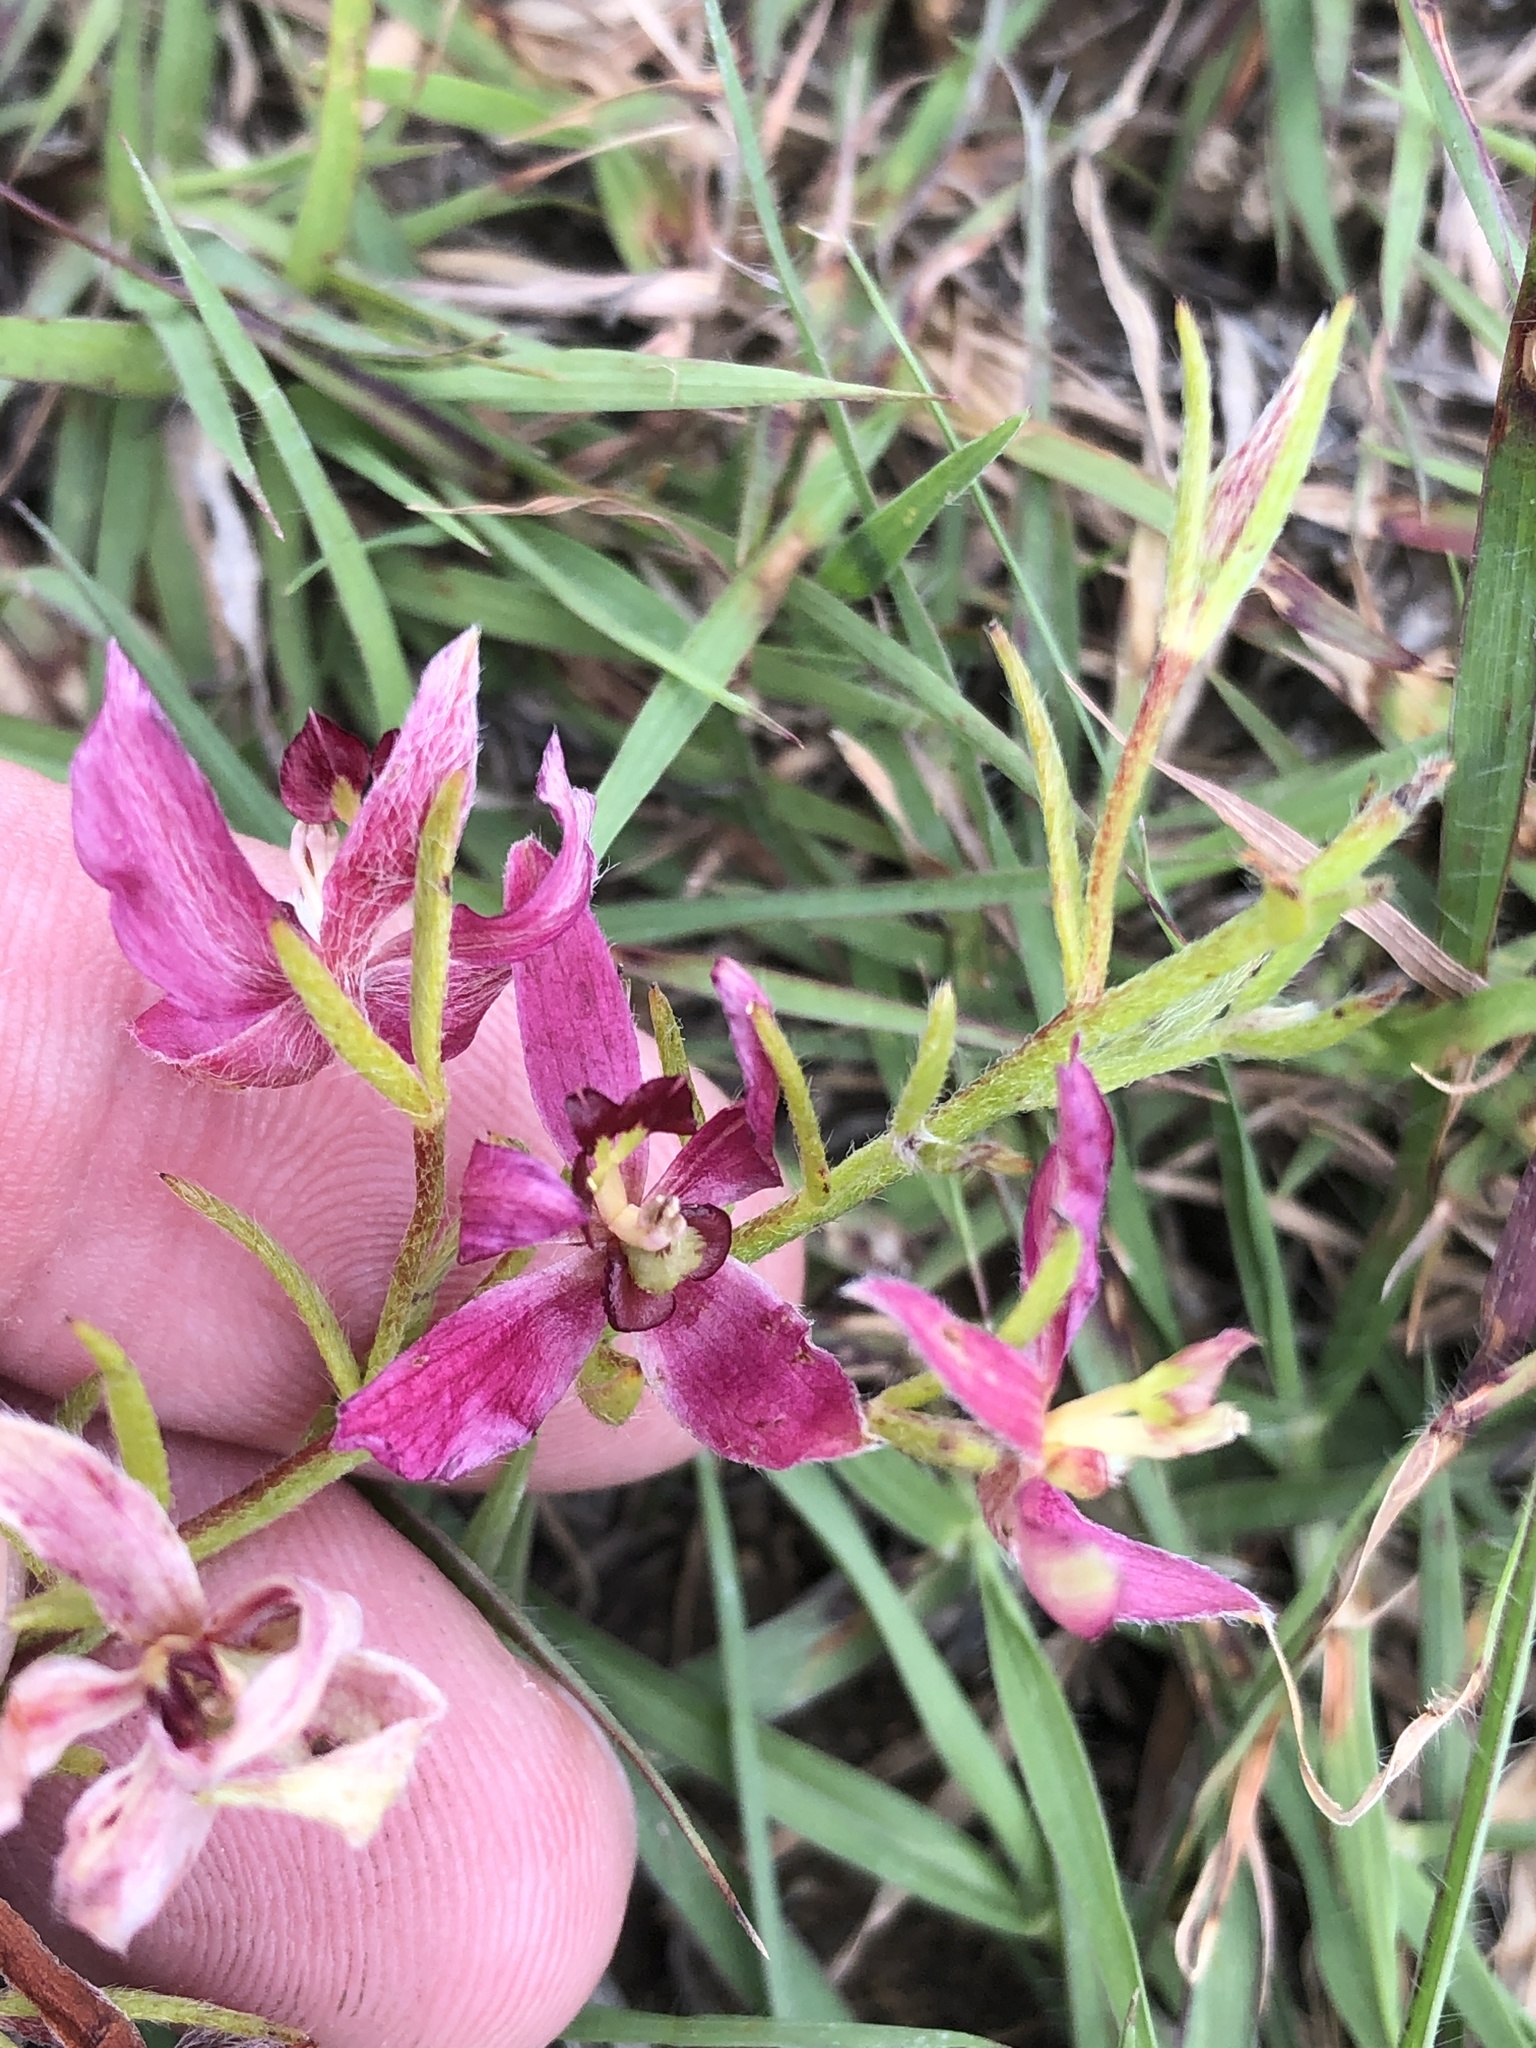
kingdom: Plantae
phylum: Tracheophyta
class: Magnoliopsida
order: Zygophyllales
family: Krameriaceae
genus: Krameria
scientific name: Krameria lanceolata
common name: Ratany
